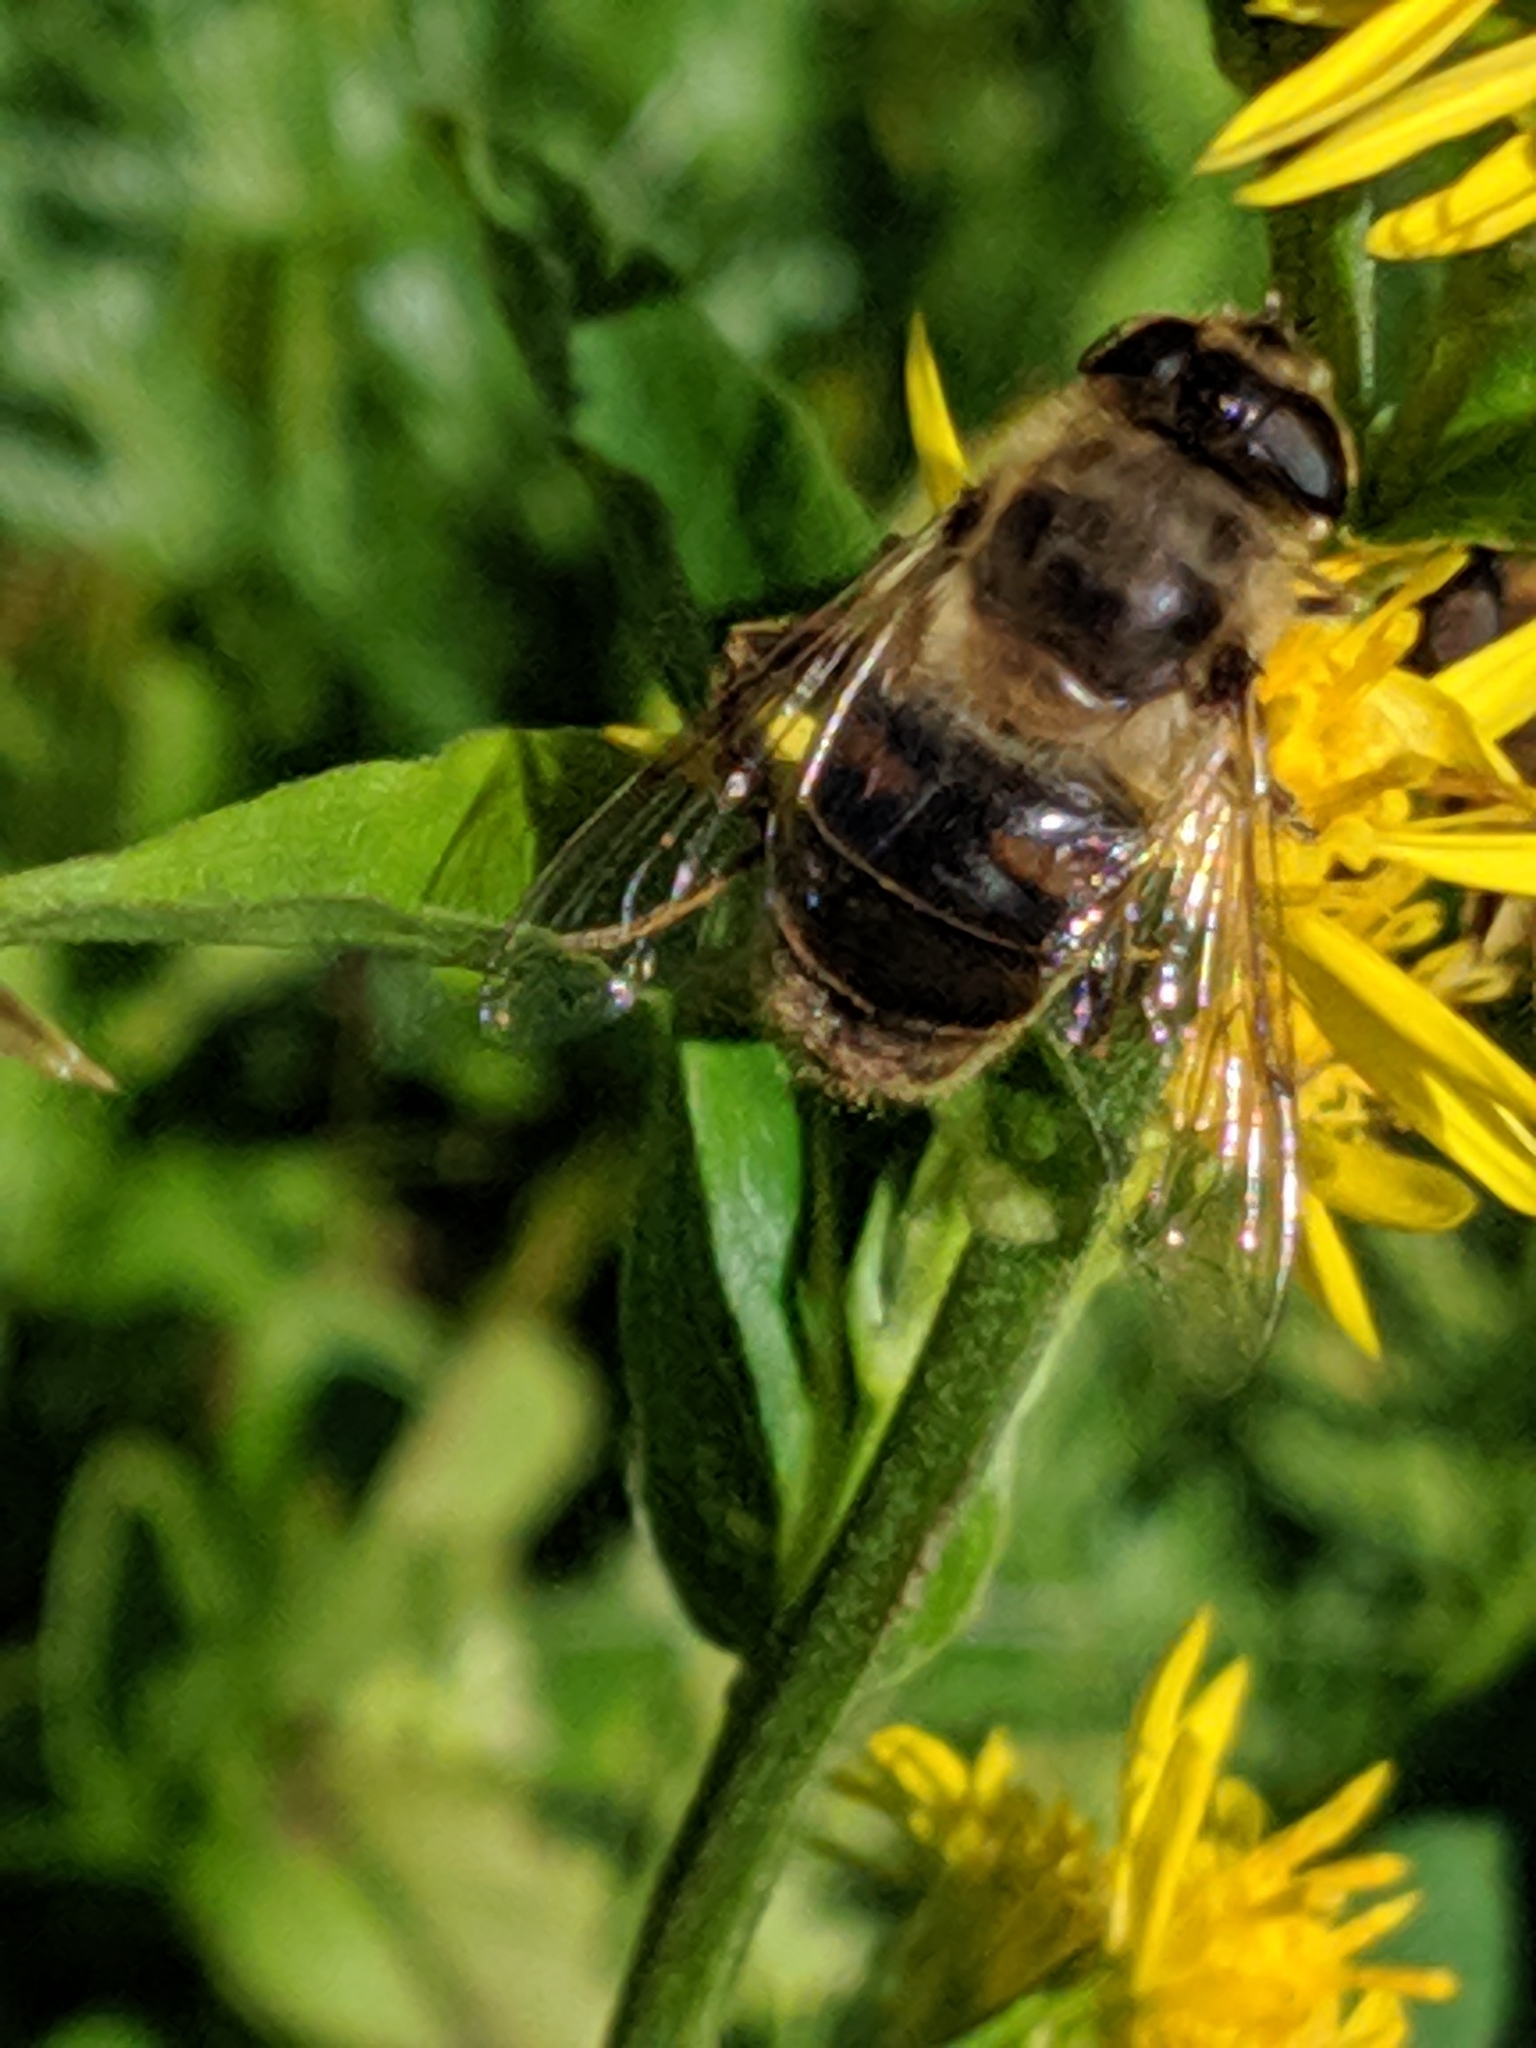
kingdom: Animalia
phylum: Arthropoda
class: Insecta
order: Diptera
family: Syrphidae
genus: Eristalis
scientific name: Eristalis tenax
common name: Drone fly
